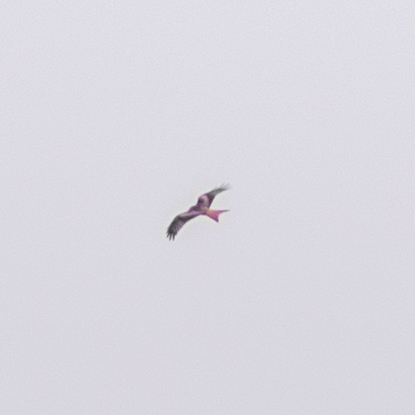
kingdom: Animalia
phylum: Chordata
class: Aves
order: Accipitriformes
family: Accipitridae
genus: Milvus
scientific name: Milvus milvus
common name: Red kite
